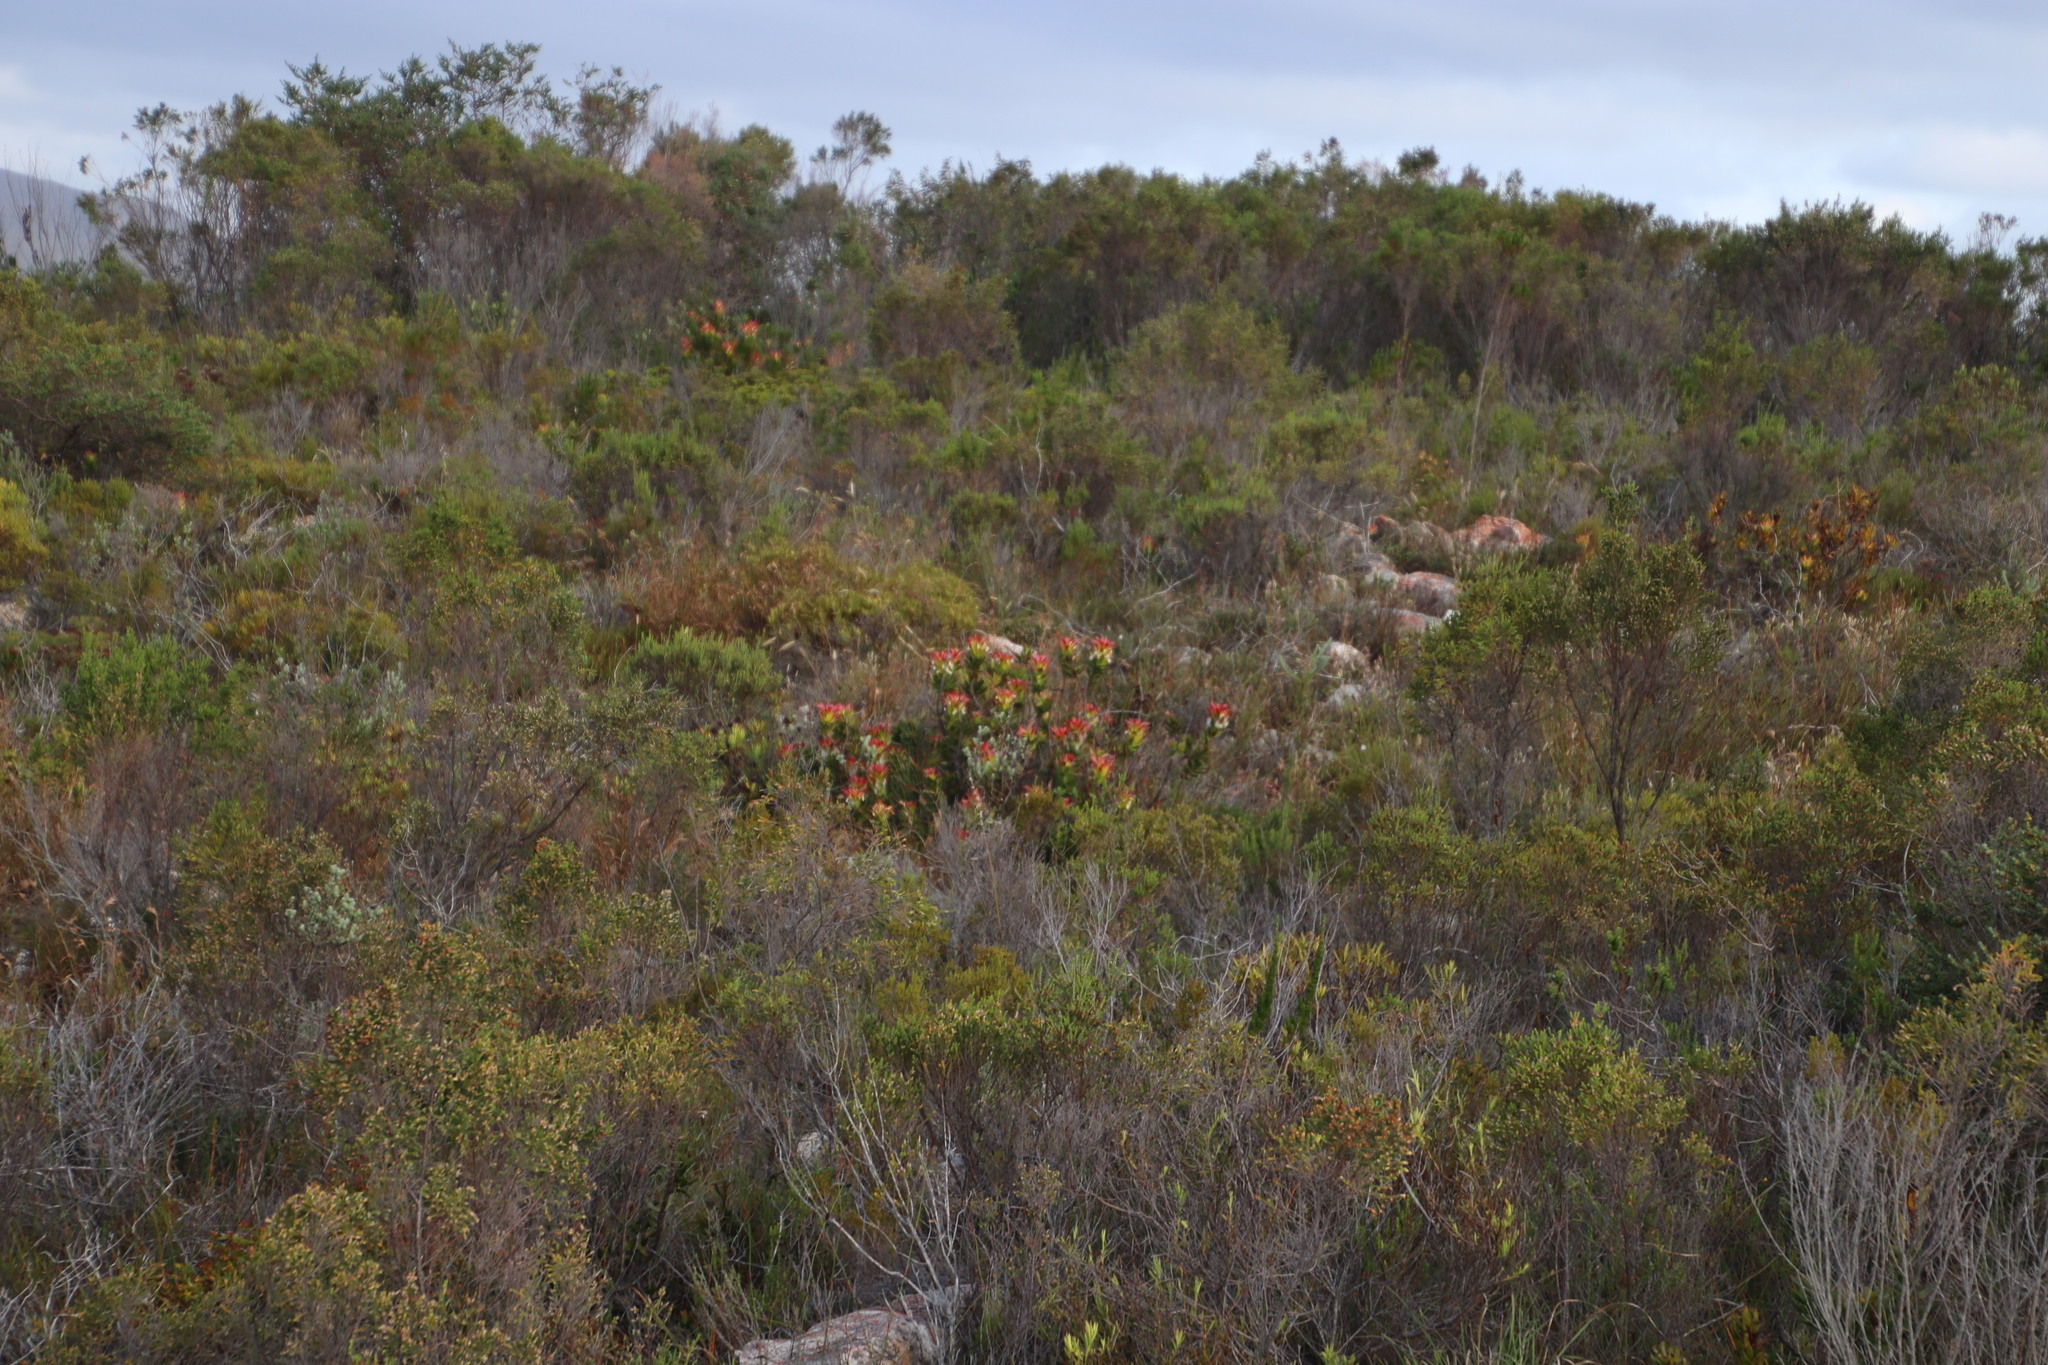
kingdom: Plantae
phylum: Tracheophyta
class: Magnoliopsida
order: Proteales
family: Proteaceae
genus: Mimetes
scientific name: Mimetes cucullatus
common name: Common pagoda
